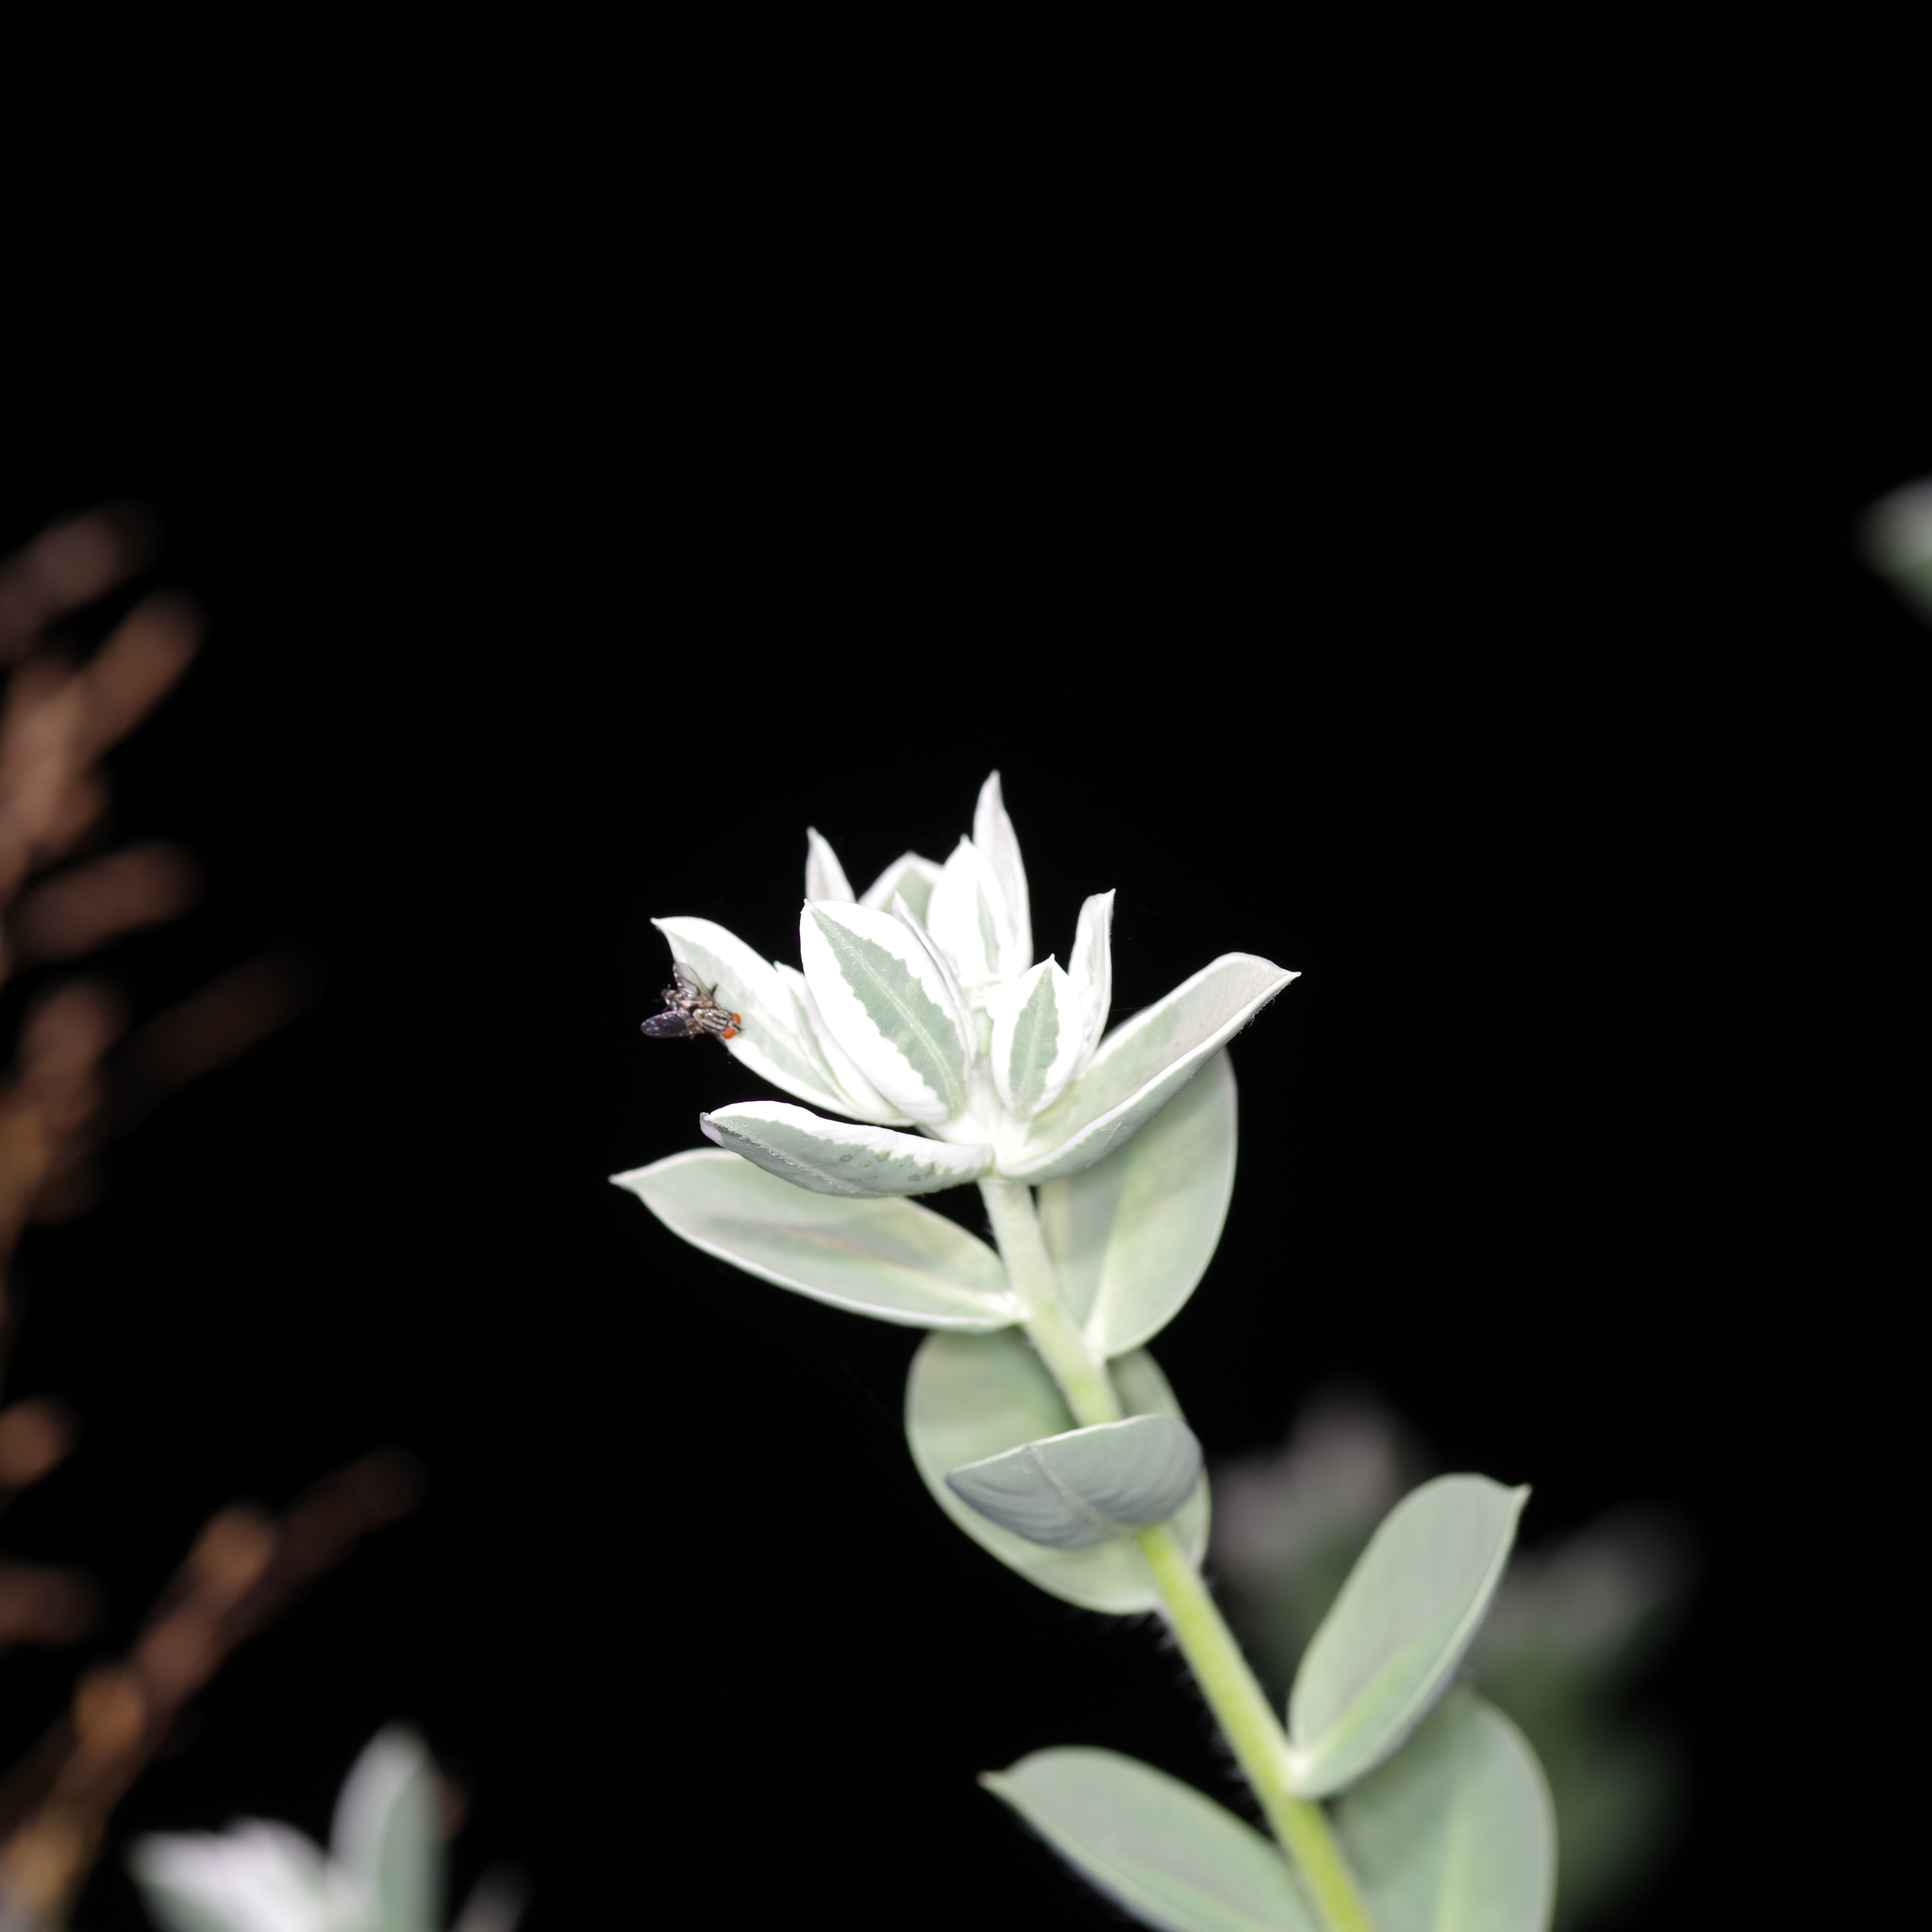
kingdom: Plantae
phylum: Tracheophyta
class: Magnoliopsida
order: Malpighiales
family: Euphorbiaceae
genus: Euphorbia
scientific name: Euphorbia marginata
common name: Ghostweed
